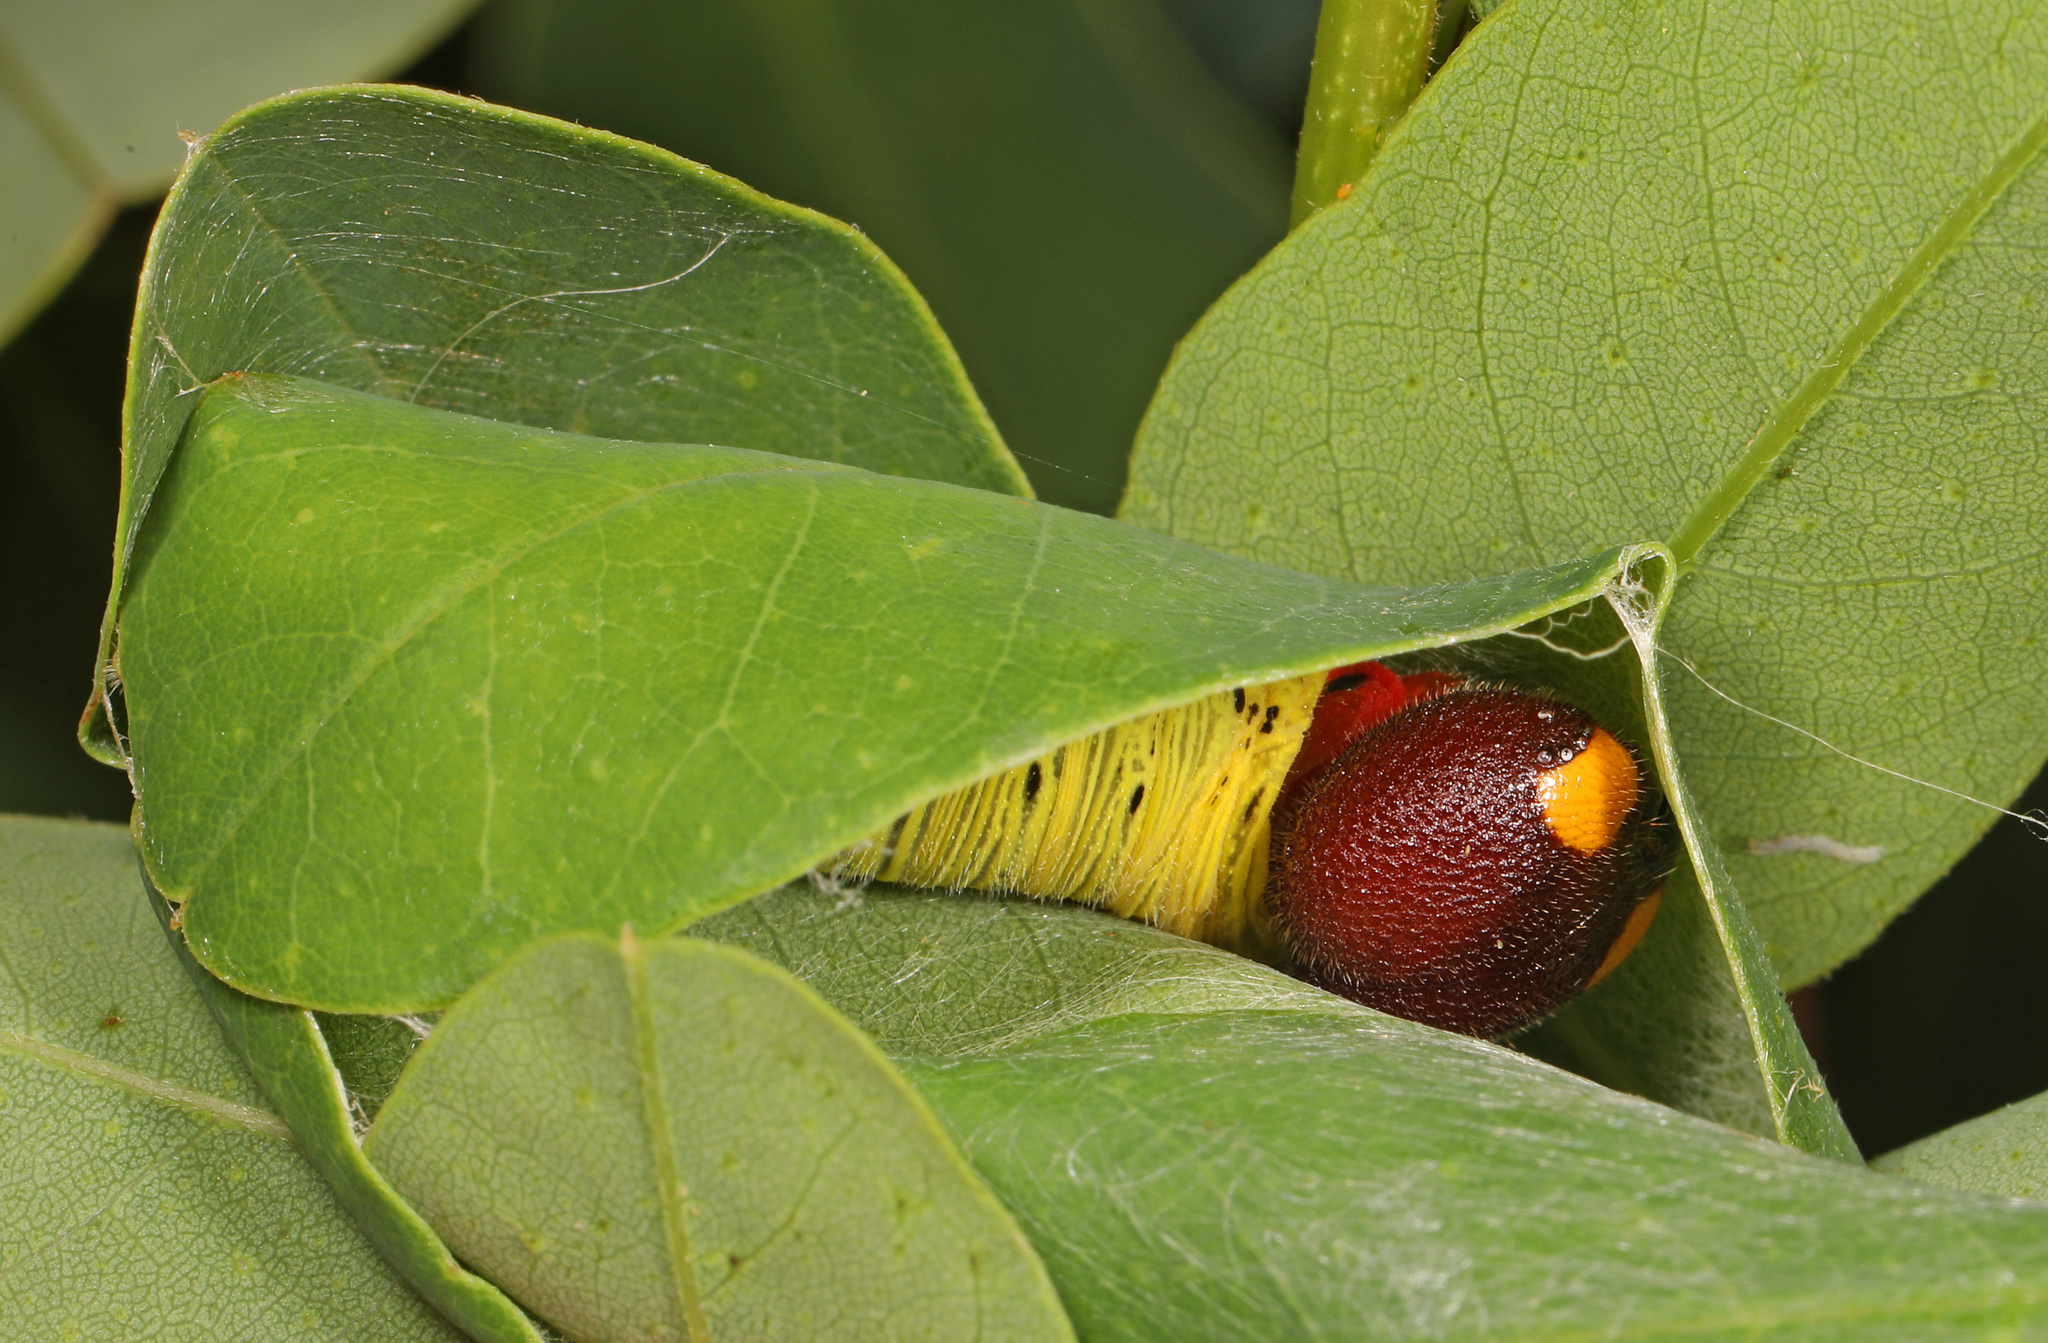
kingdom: Animalia
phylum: Arthropoda
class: Insecta
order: Lepidoptera
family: Hesperiidae
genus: Epargyreus
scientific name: Epargyreus clarus
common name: Silver-spotted skipper
